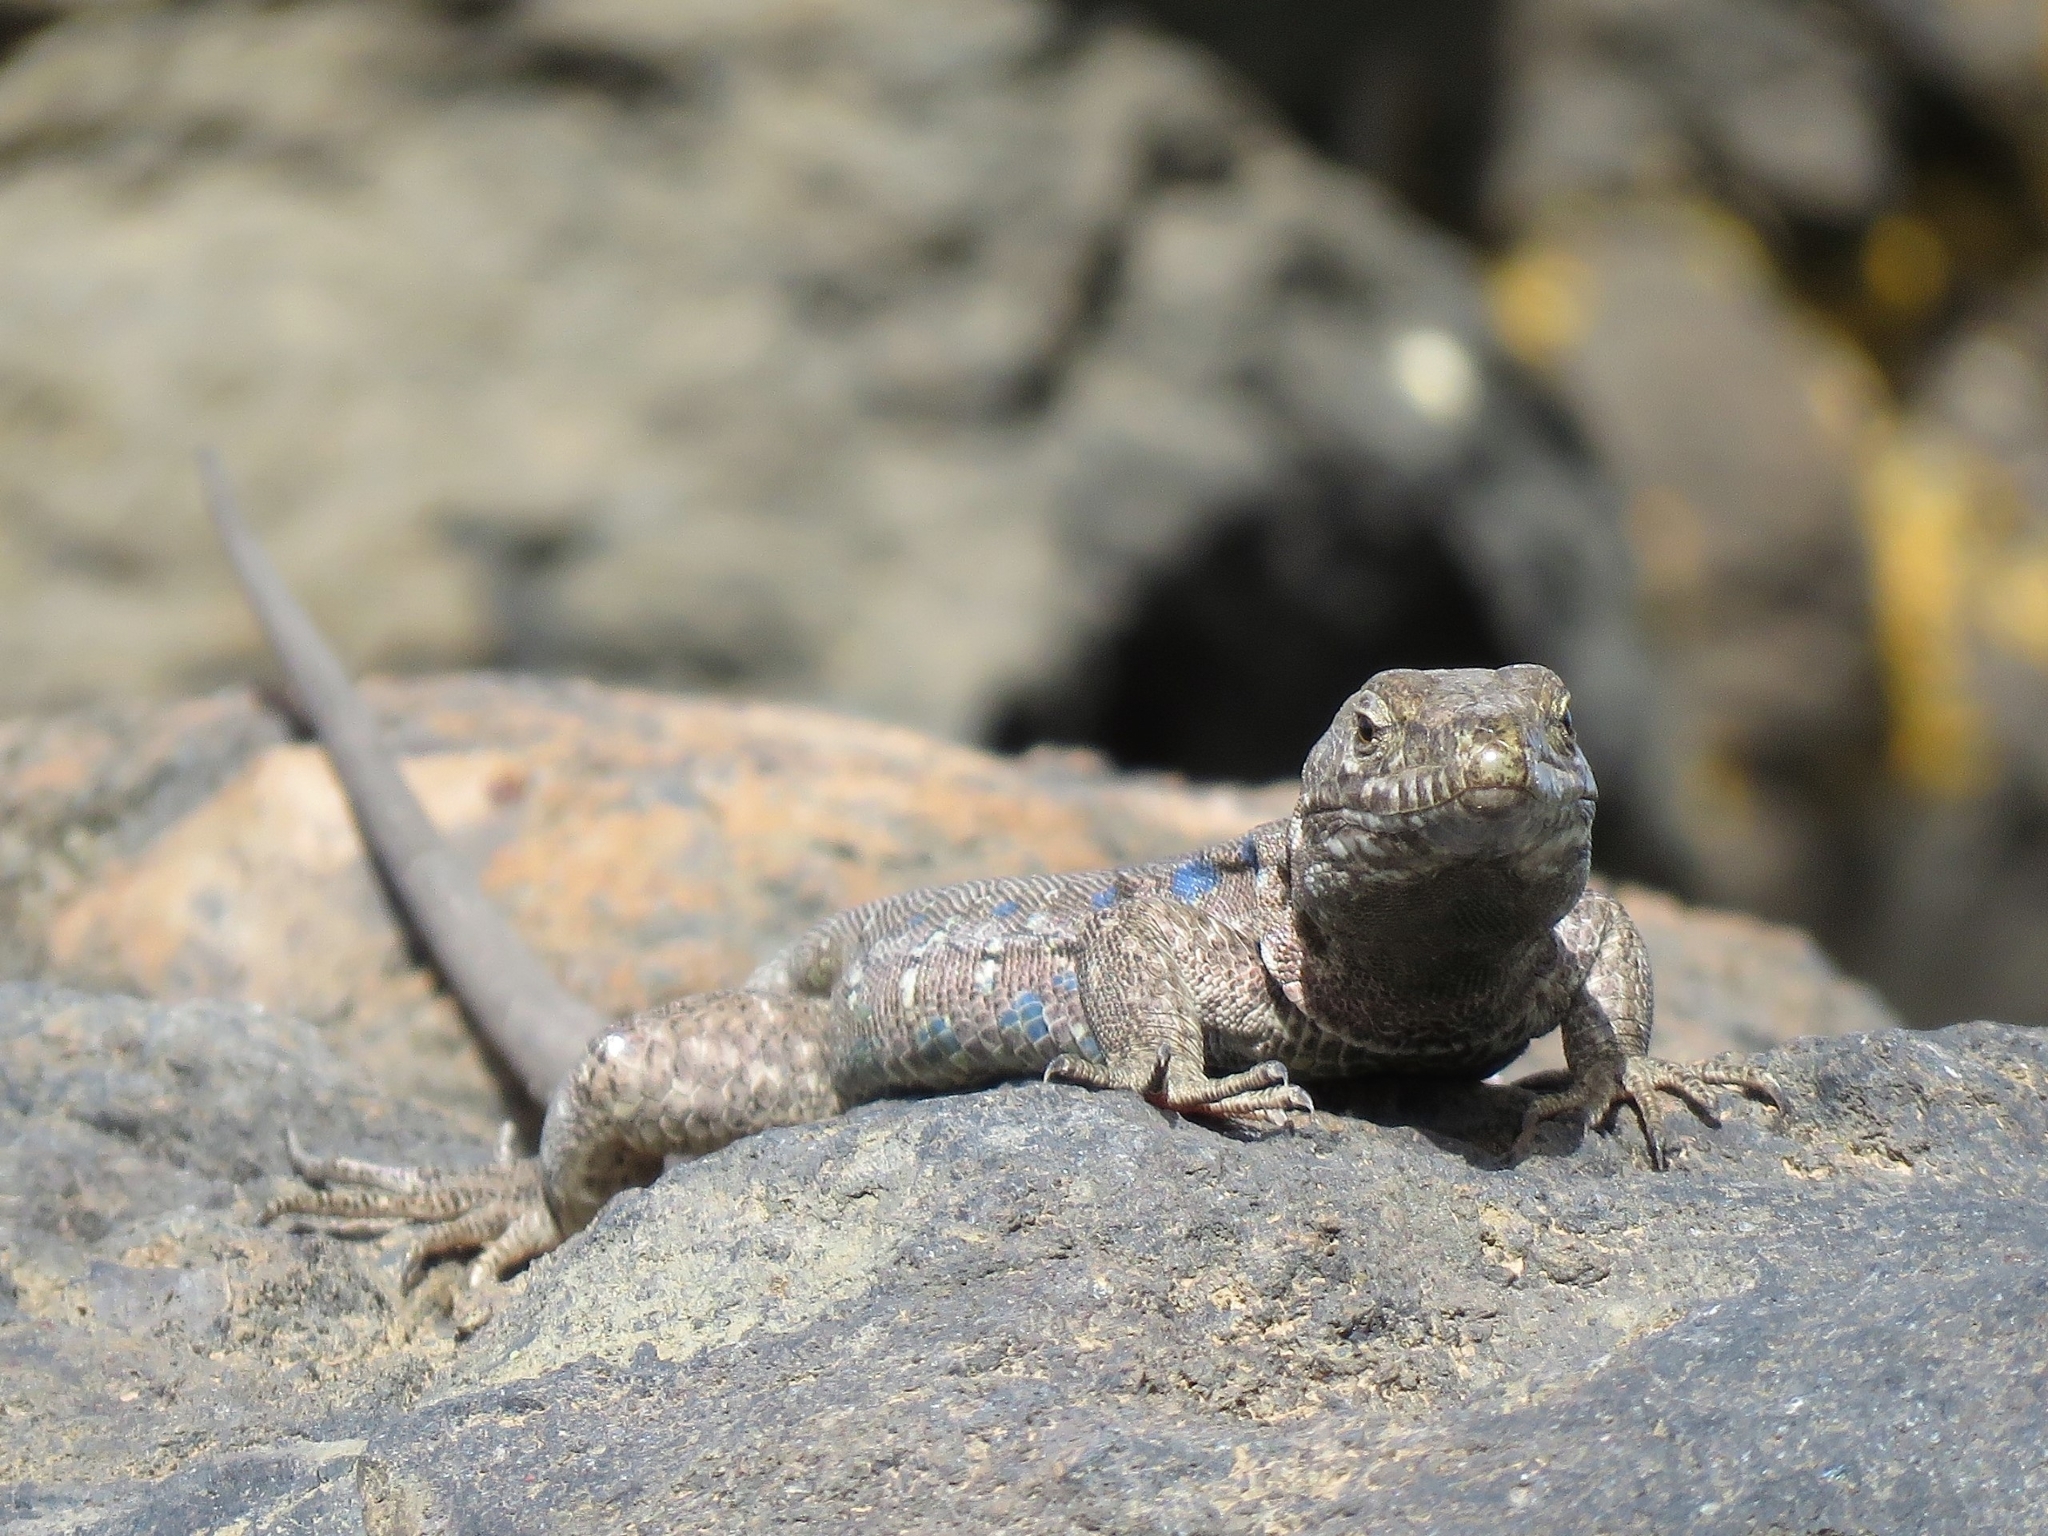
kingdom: Animalia
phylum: Chordata
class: Squamata
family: Lacertidae
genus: Gallotia
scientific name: Gallotia galloti
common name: Gallot's lizard
